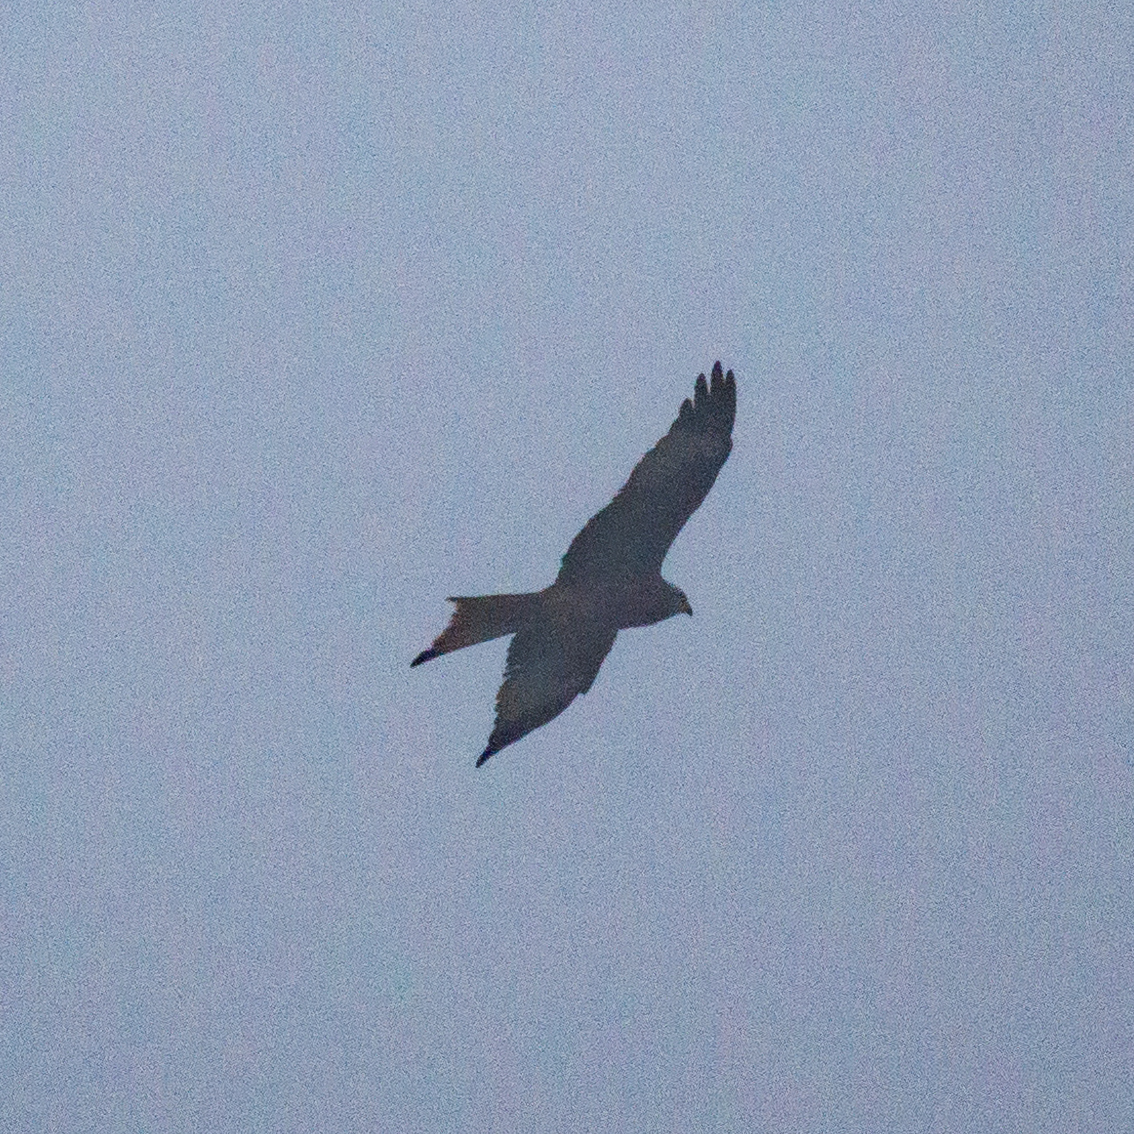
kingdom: Animalia
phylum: Chordata
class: Aves
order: Accipitriformes
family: Accipitridae
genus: Milvus
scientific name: Milvus milvus
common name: Red kite
